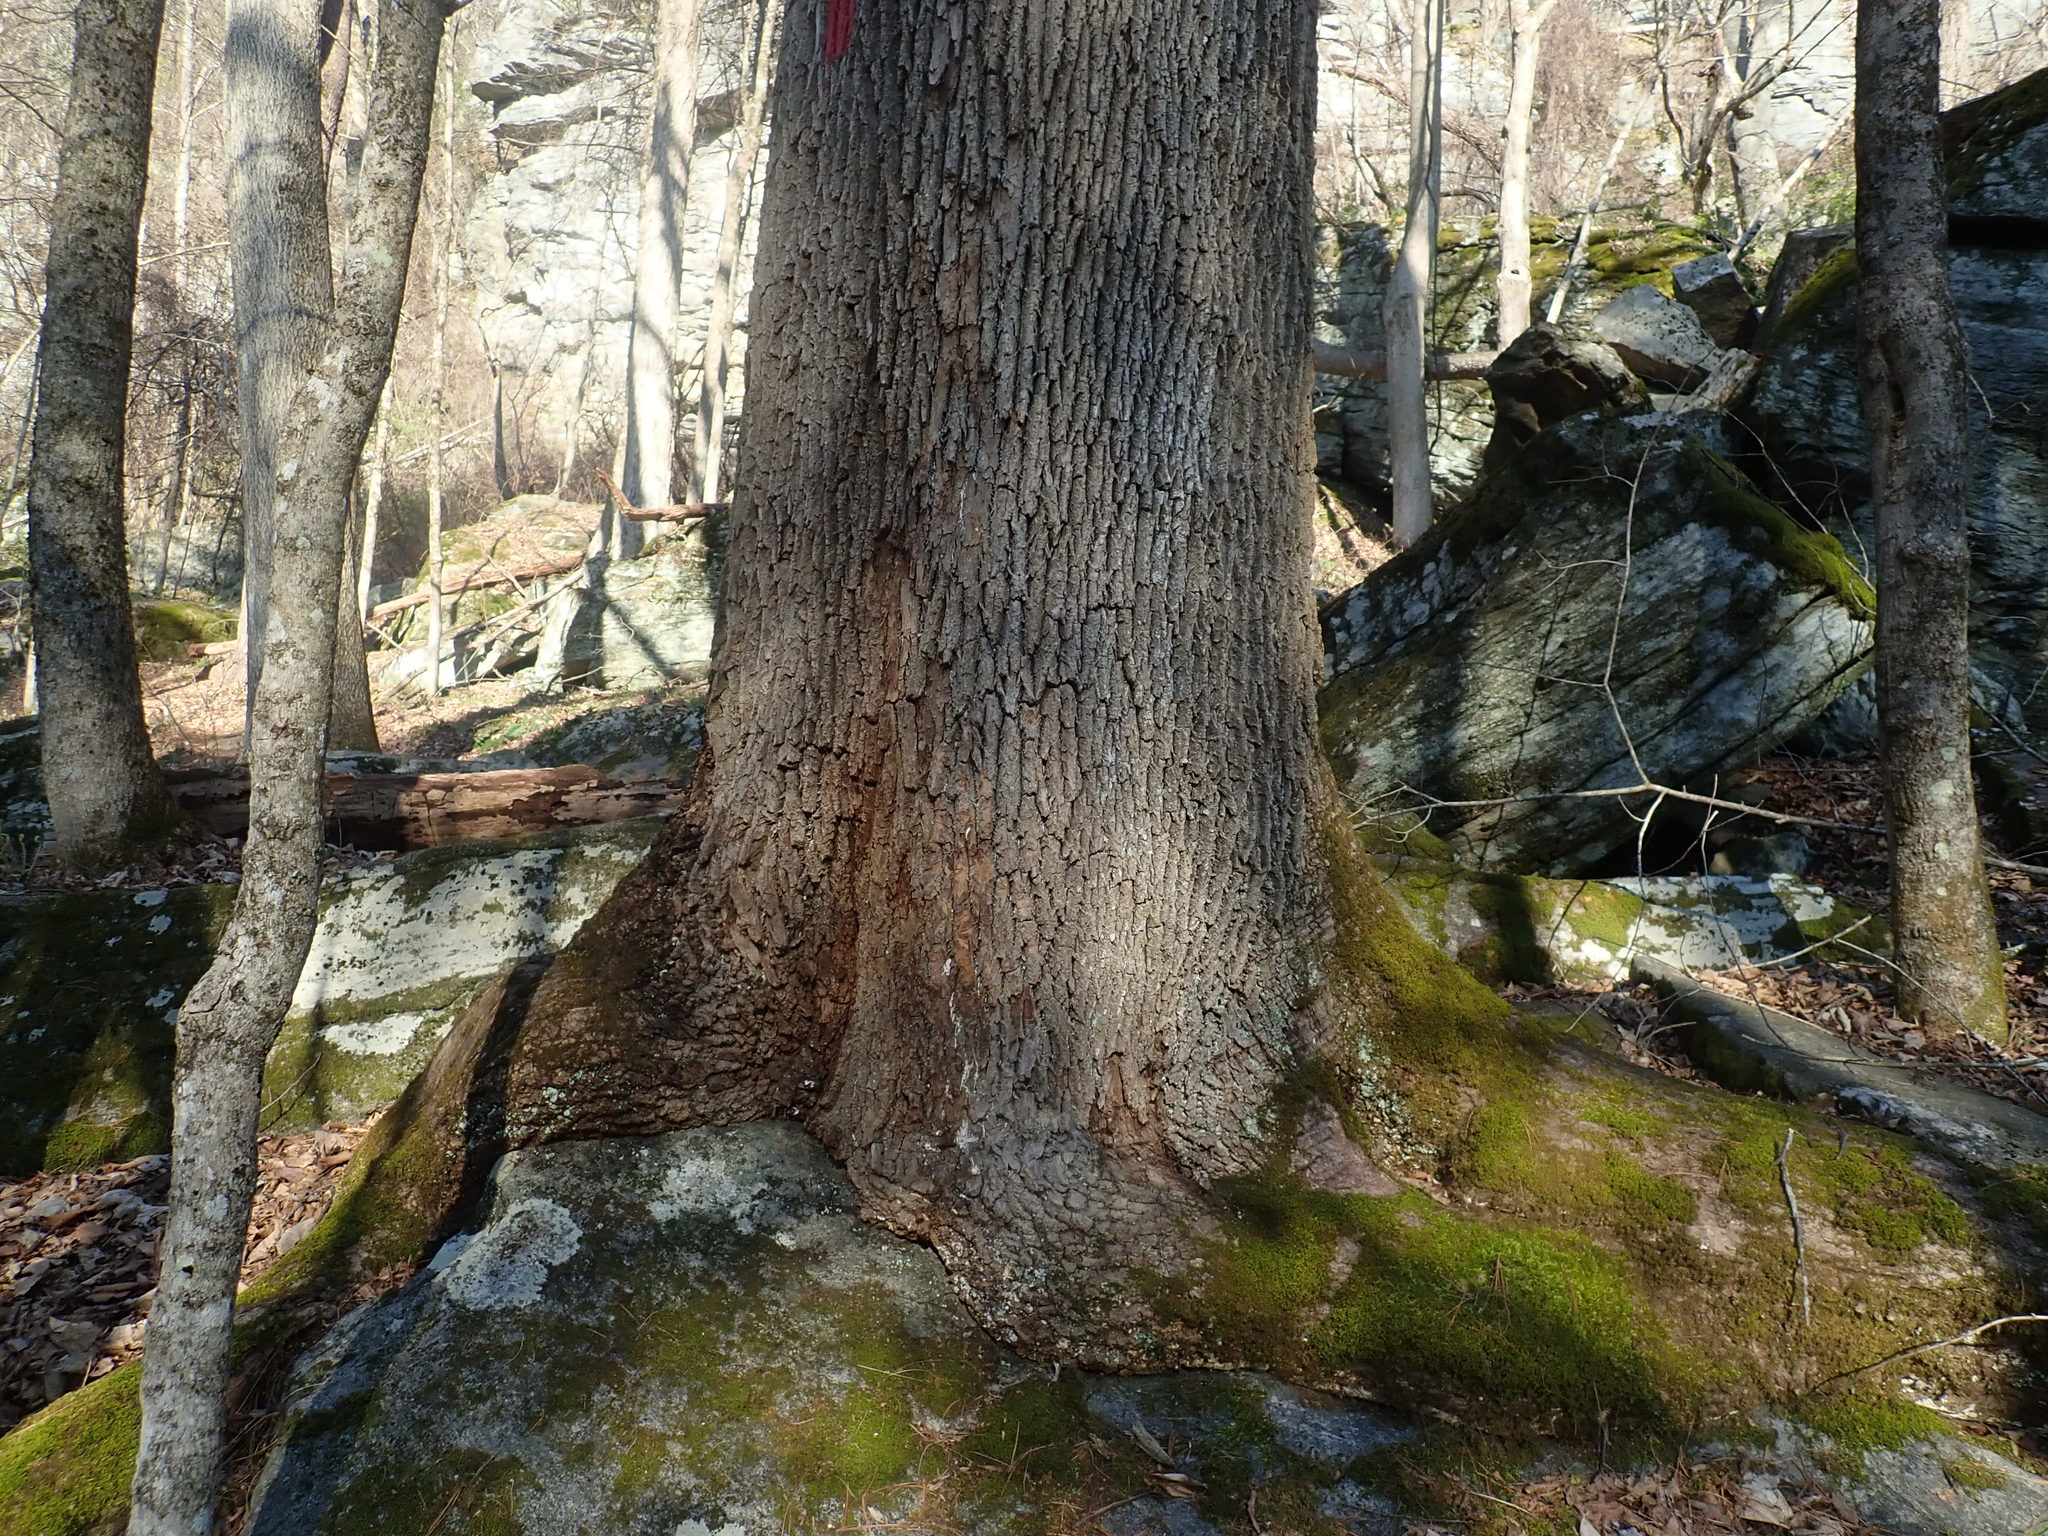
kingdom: Plantae
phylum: Tracheophyta
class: Magnoliopsida
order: Lamiales
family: Oleaceae
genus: Fraxinus
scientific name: Fraxinus americana
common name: White ash
